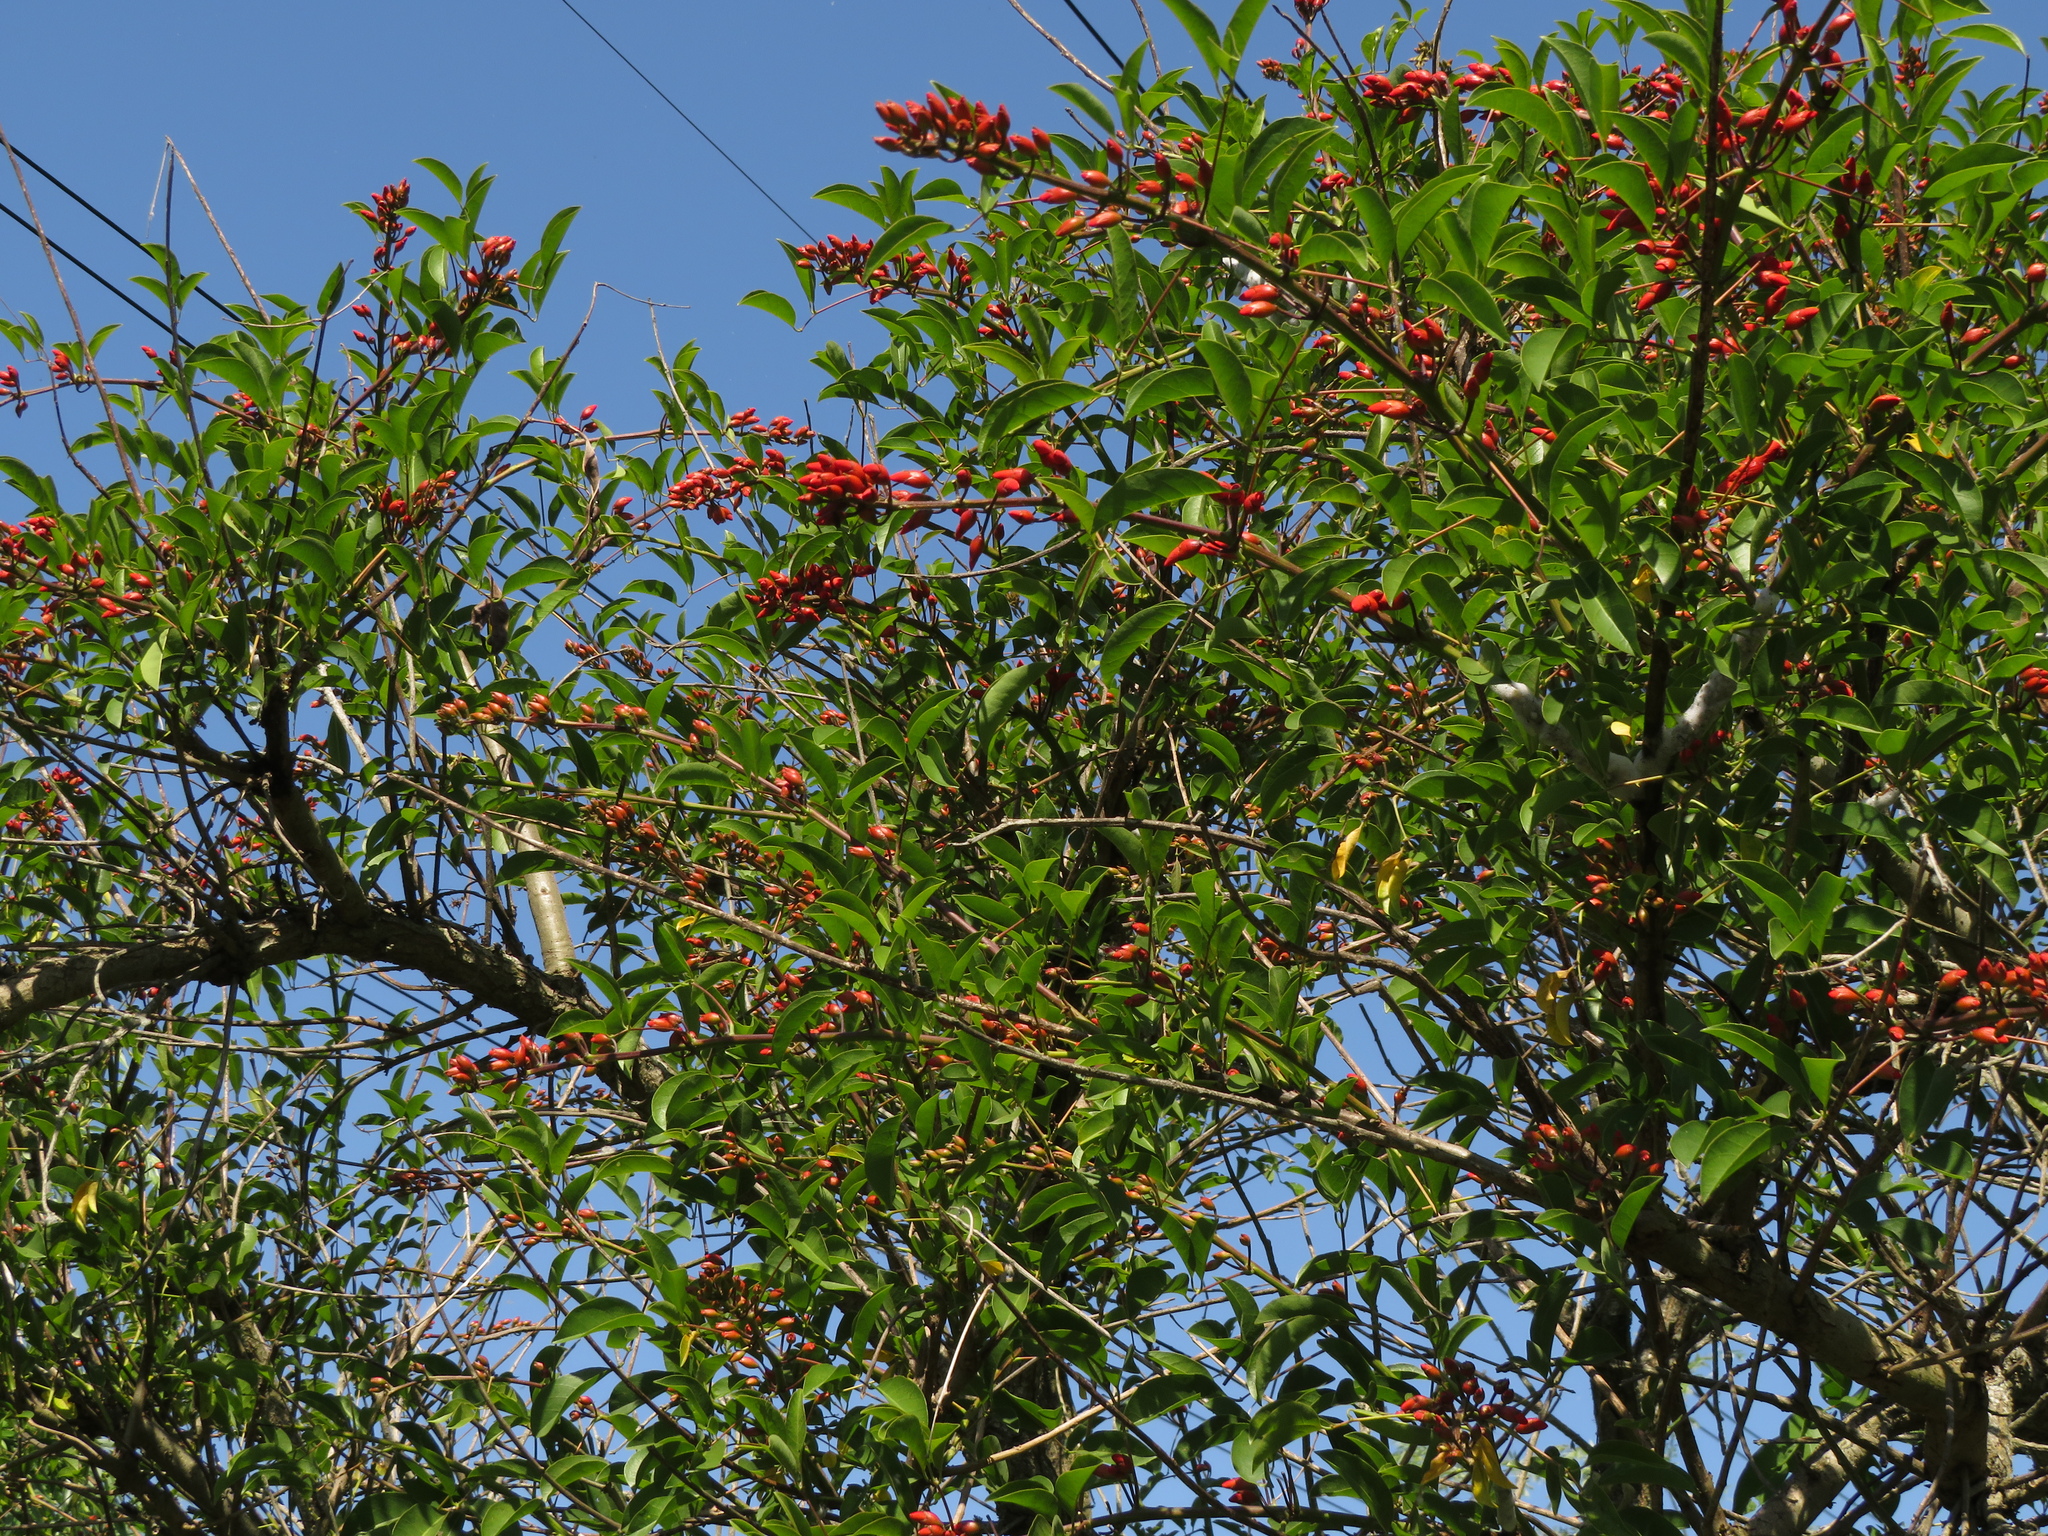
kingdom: Plantae
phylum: Tracheophyta
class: Magnoliopsida
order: Fabales
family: Fabaceae
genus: Erythrina
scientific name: Erythrina crista-galli
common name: Cockspur coral tree
